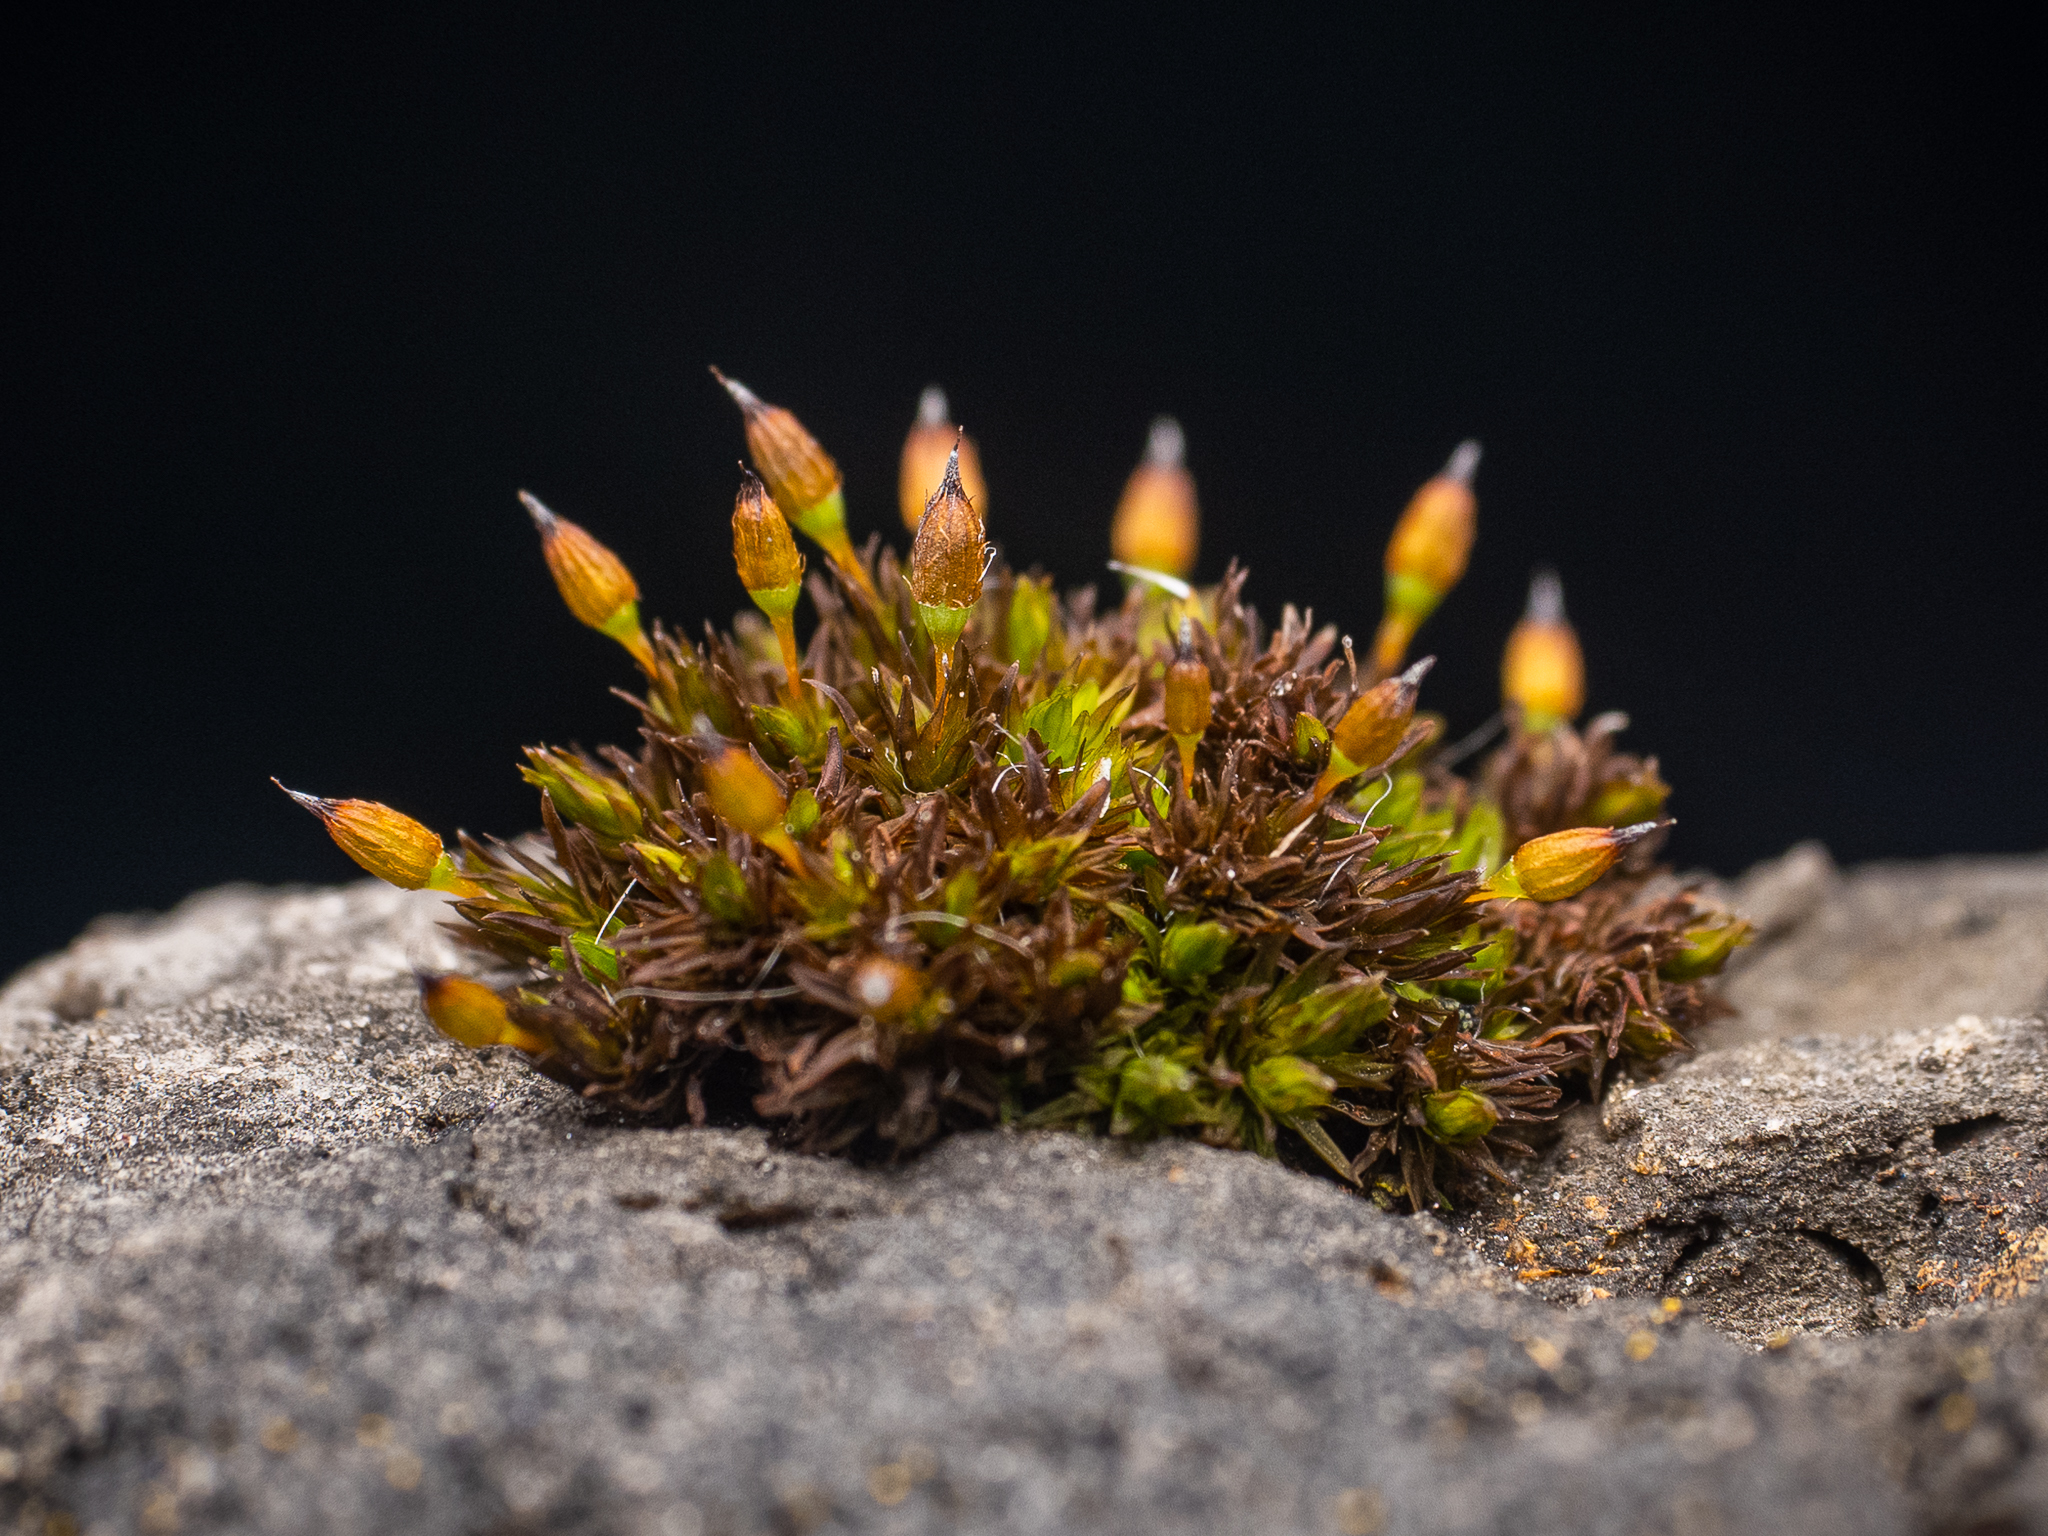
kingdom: Plantae
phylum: Bryophyta
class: Bryopsida
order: Orthotrichales
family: Orthotrichaceae
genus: Orthotrichum
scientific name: Orthotrichum anomalum
